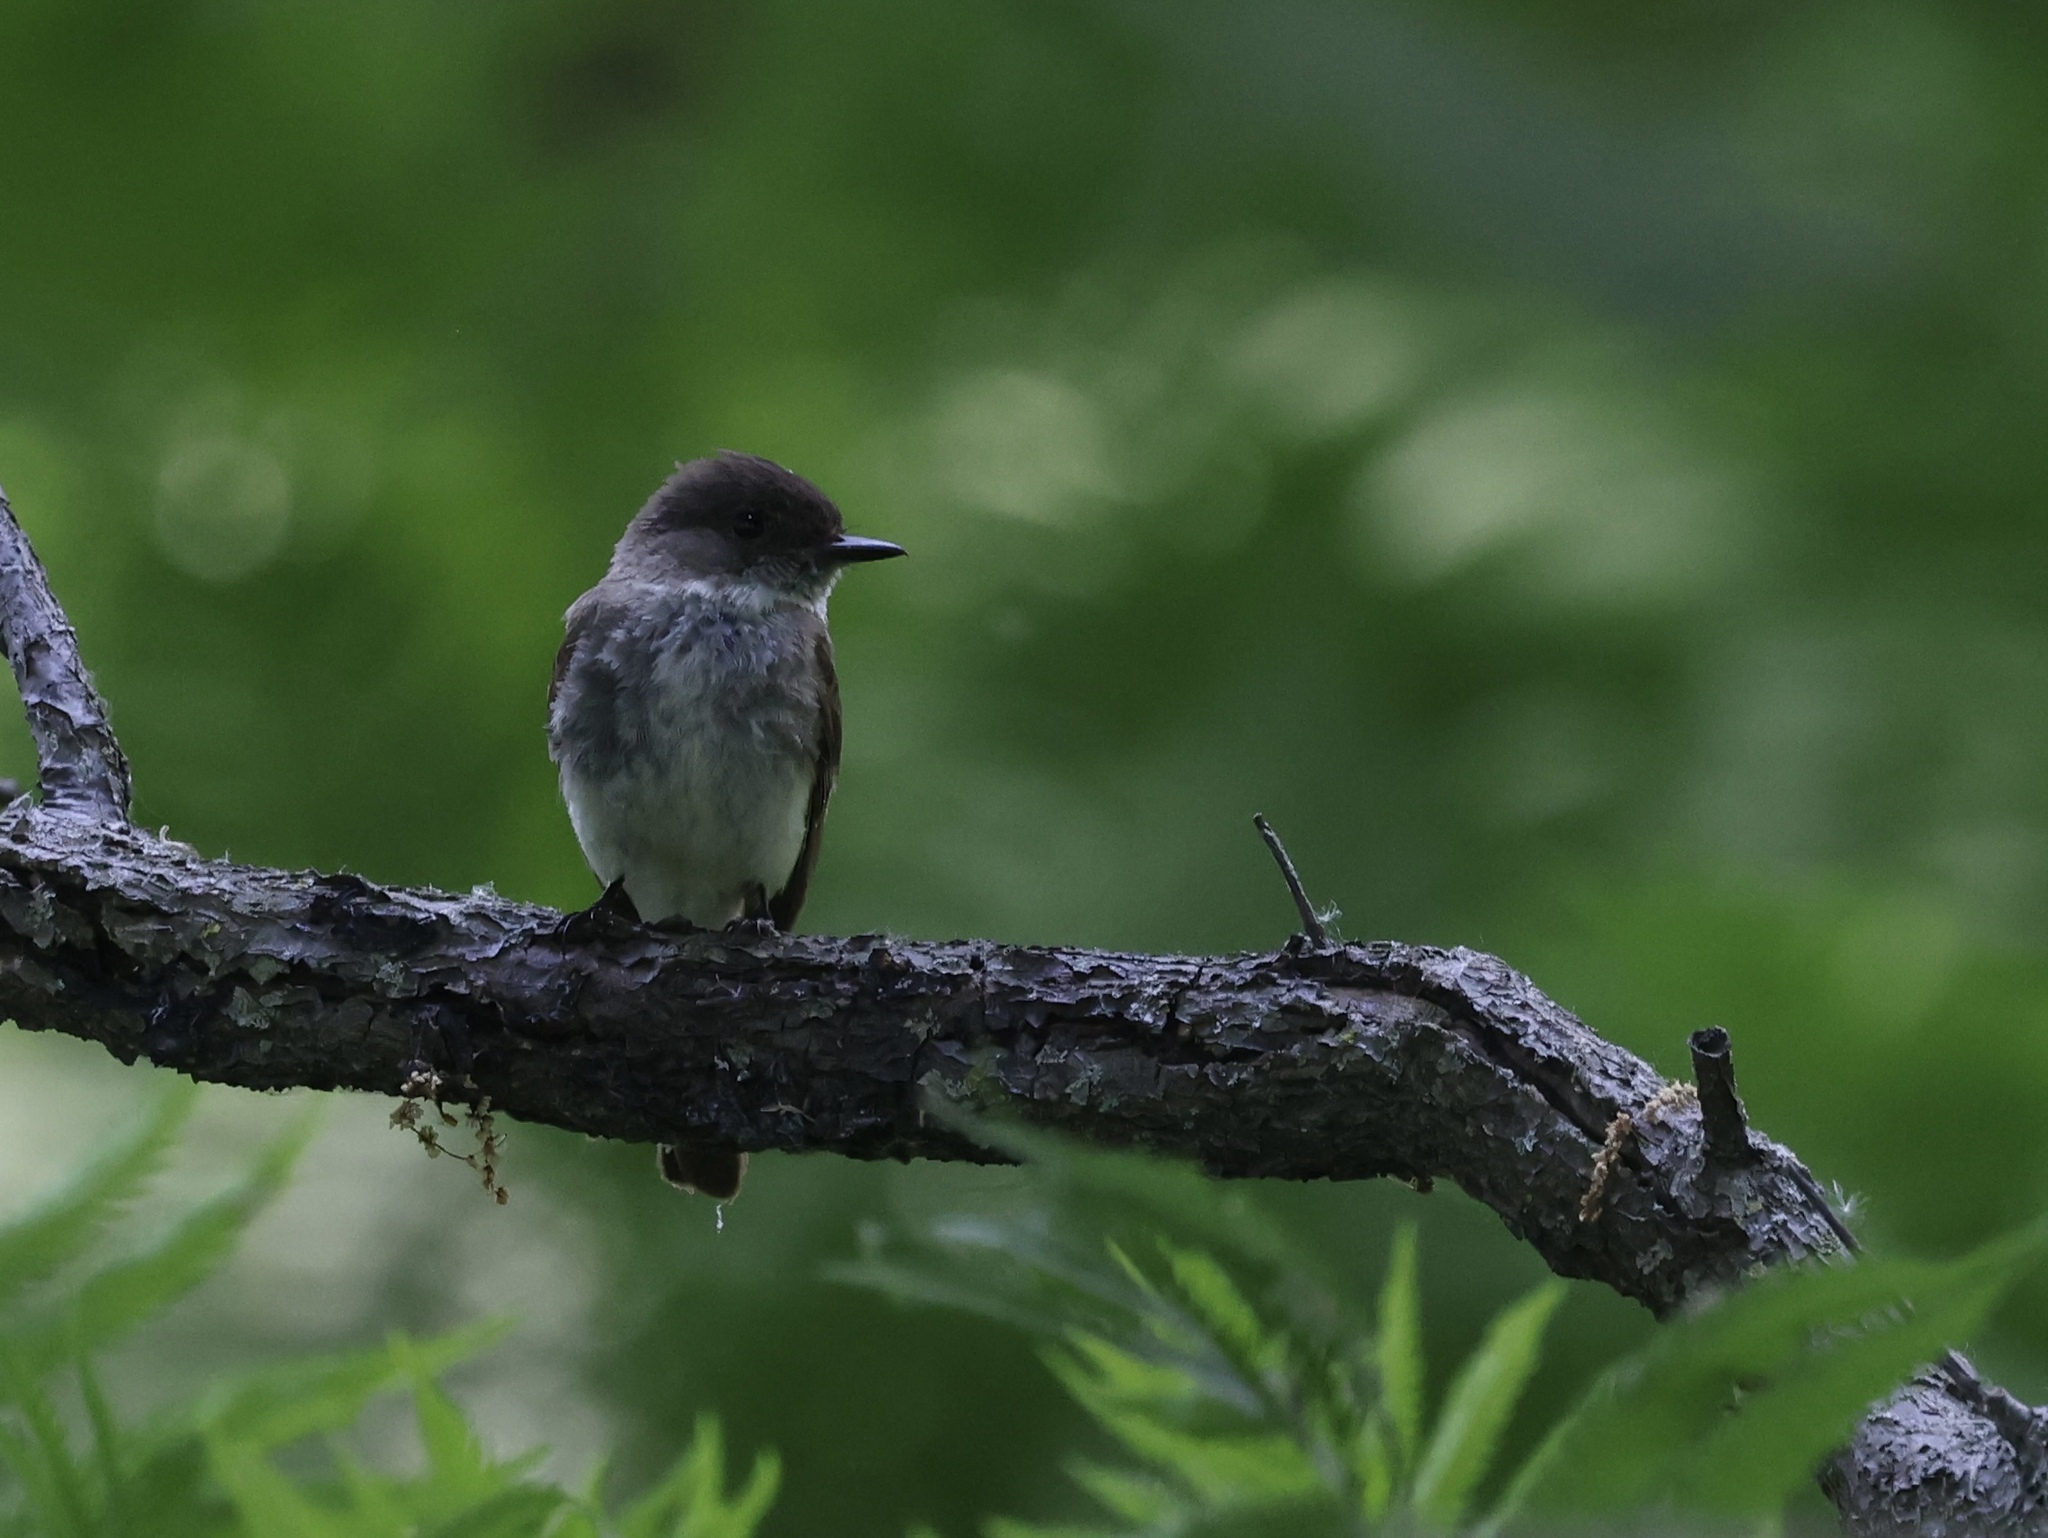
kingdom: Animalia
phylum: Chordata
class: Aves
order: Passeriformes
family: Tyrannidae
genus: Sayornis
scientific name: Sayornis phoebe
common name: Eastern phoebe
